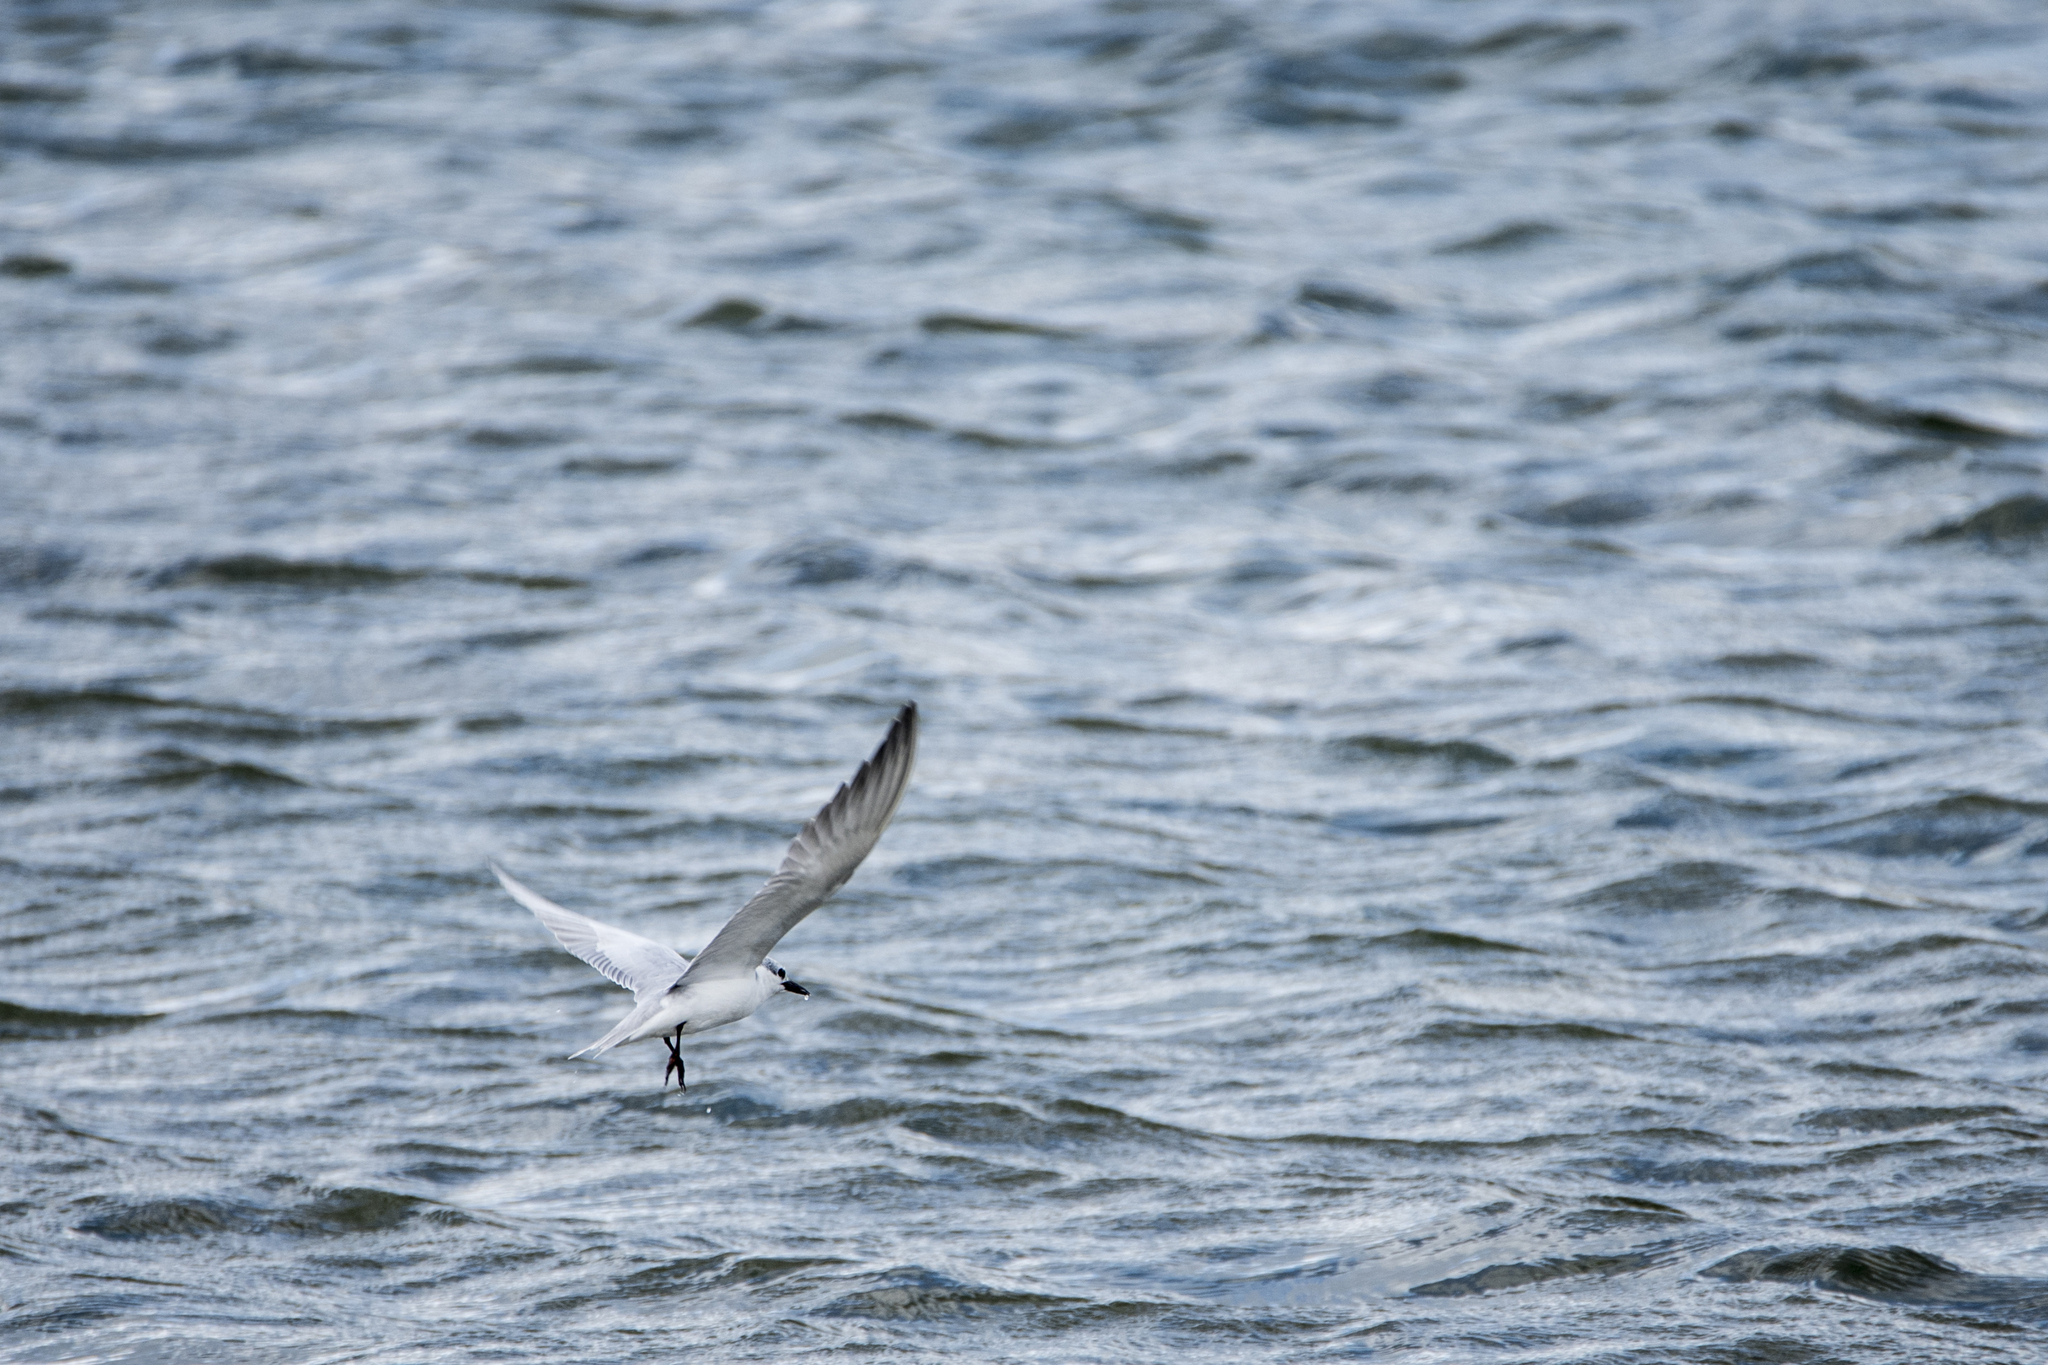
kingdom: Animalia
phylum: Chordata
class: Aves
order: Charadriiformes
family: Laridae
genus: Chlidonias
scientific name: Chlidonias hybrida
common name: Whiskered tern
